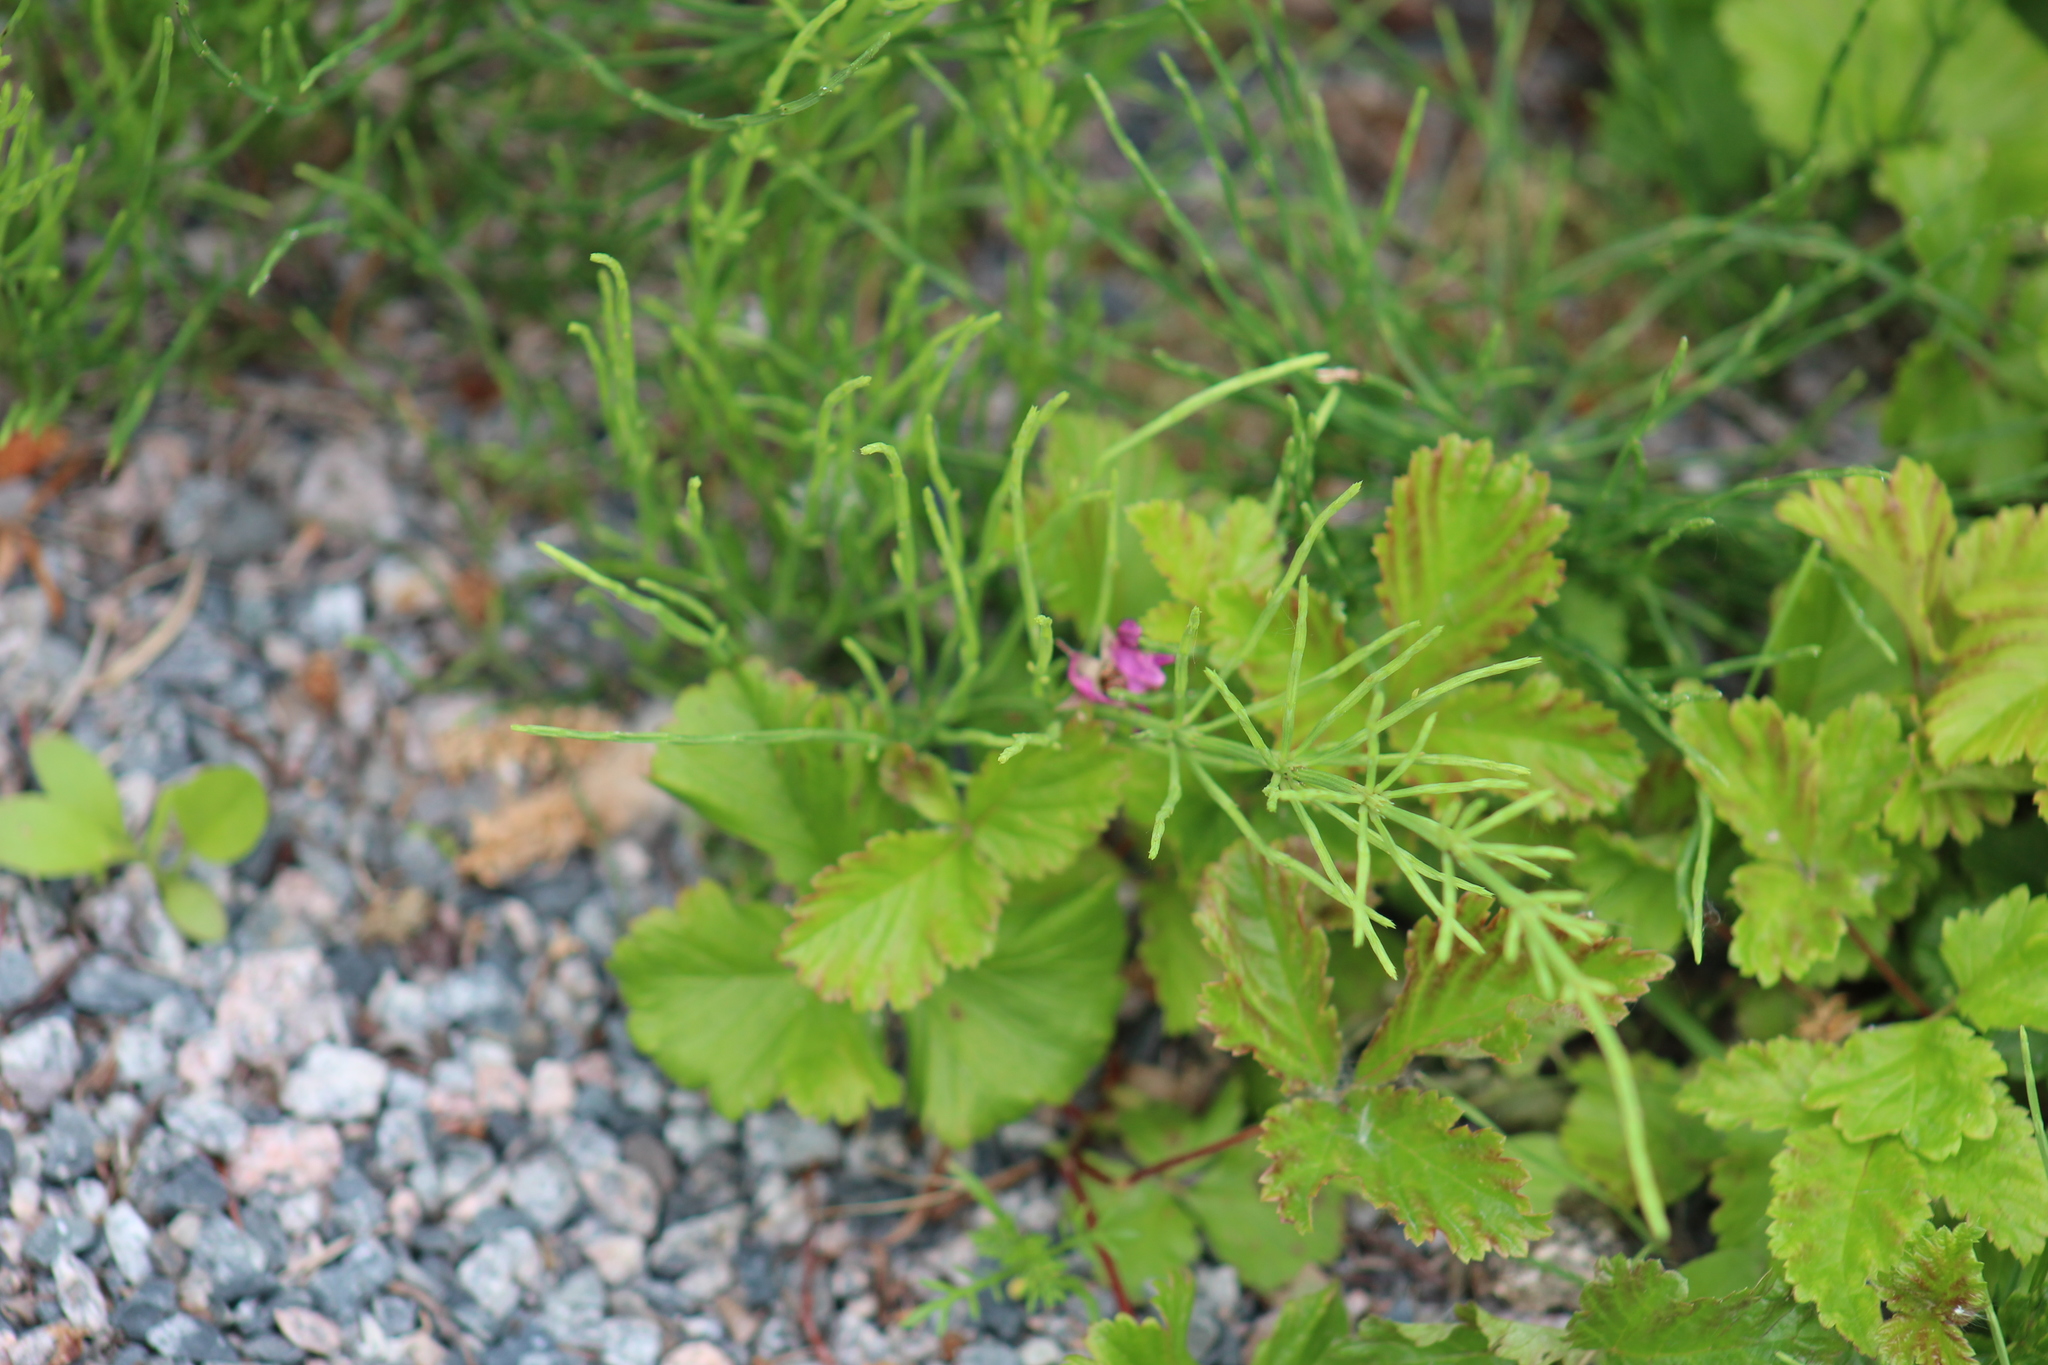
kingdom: Plantae
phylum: Tracheophyta
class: Magnoliopsida
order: Rosales
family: Rosaceae
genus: Rubus
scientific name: Rubus arcticus
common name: Arctic bramble
